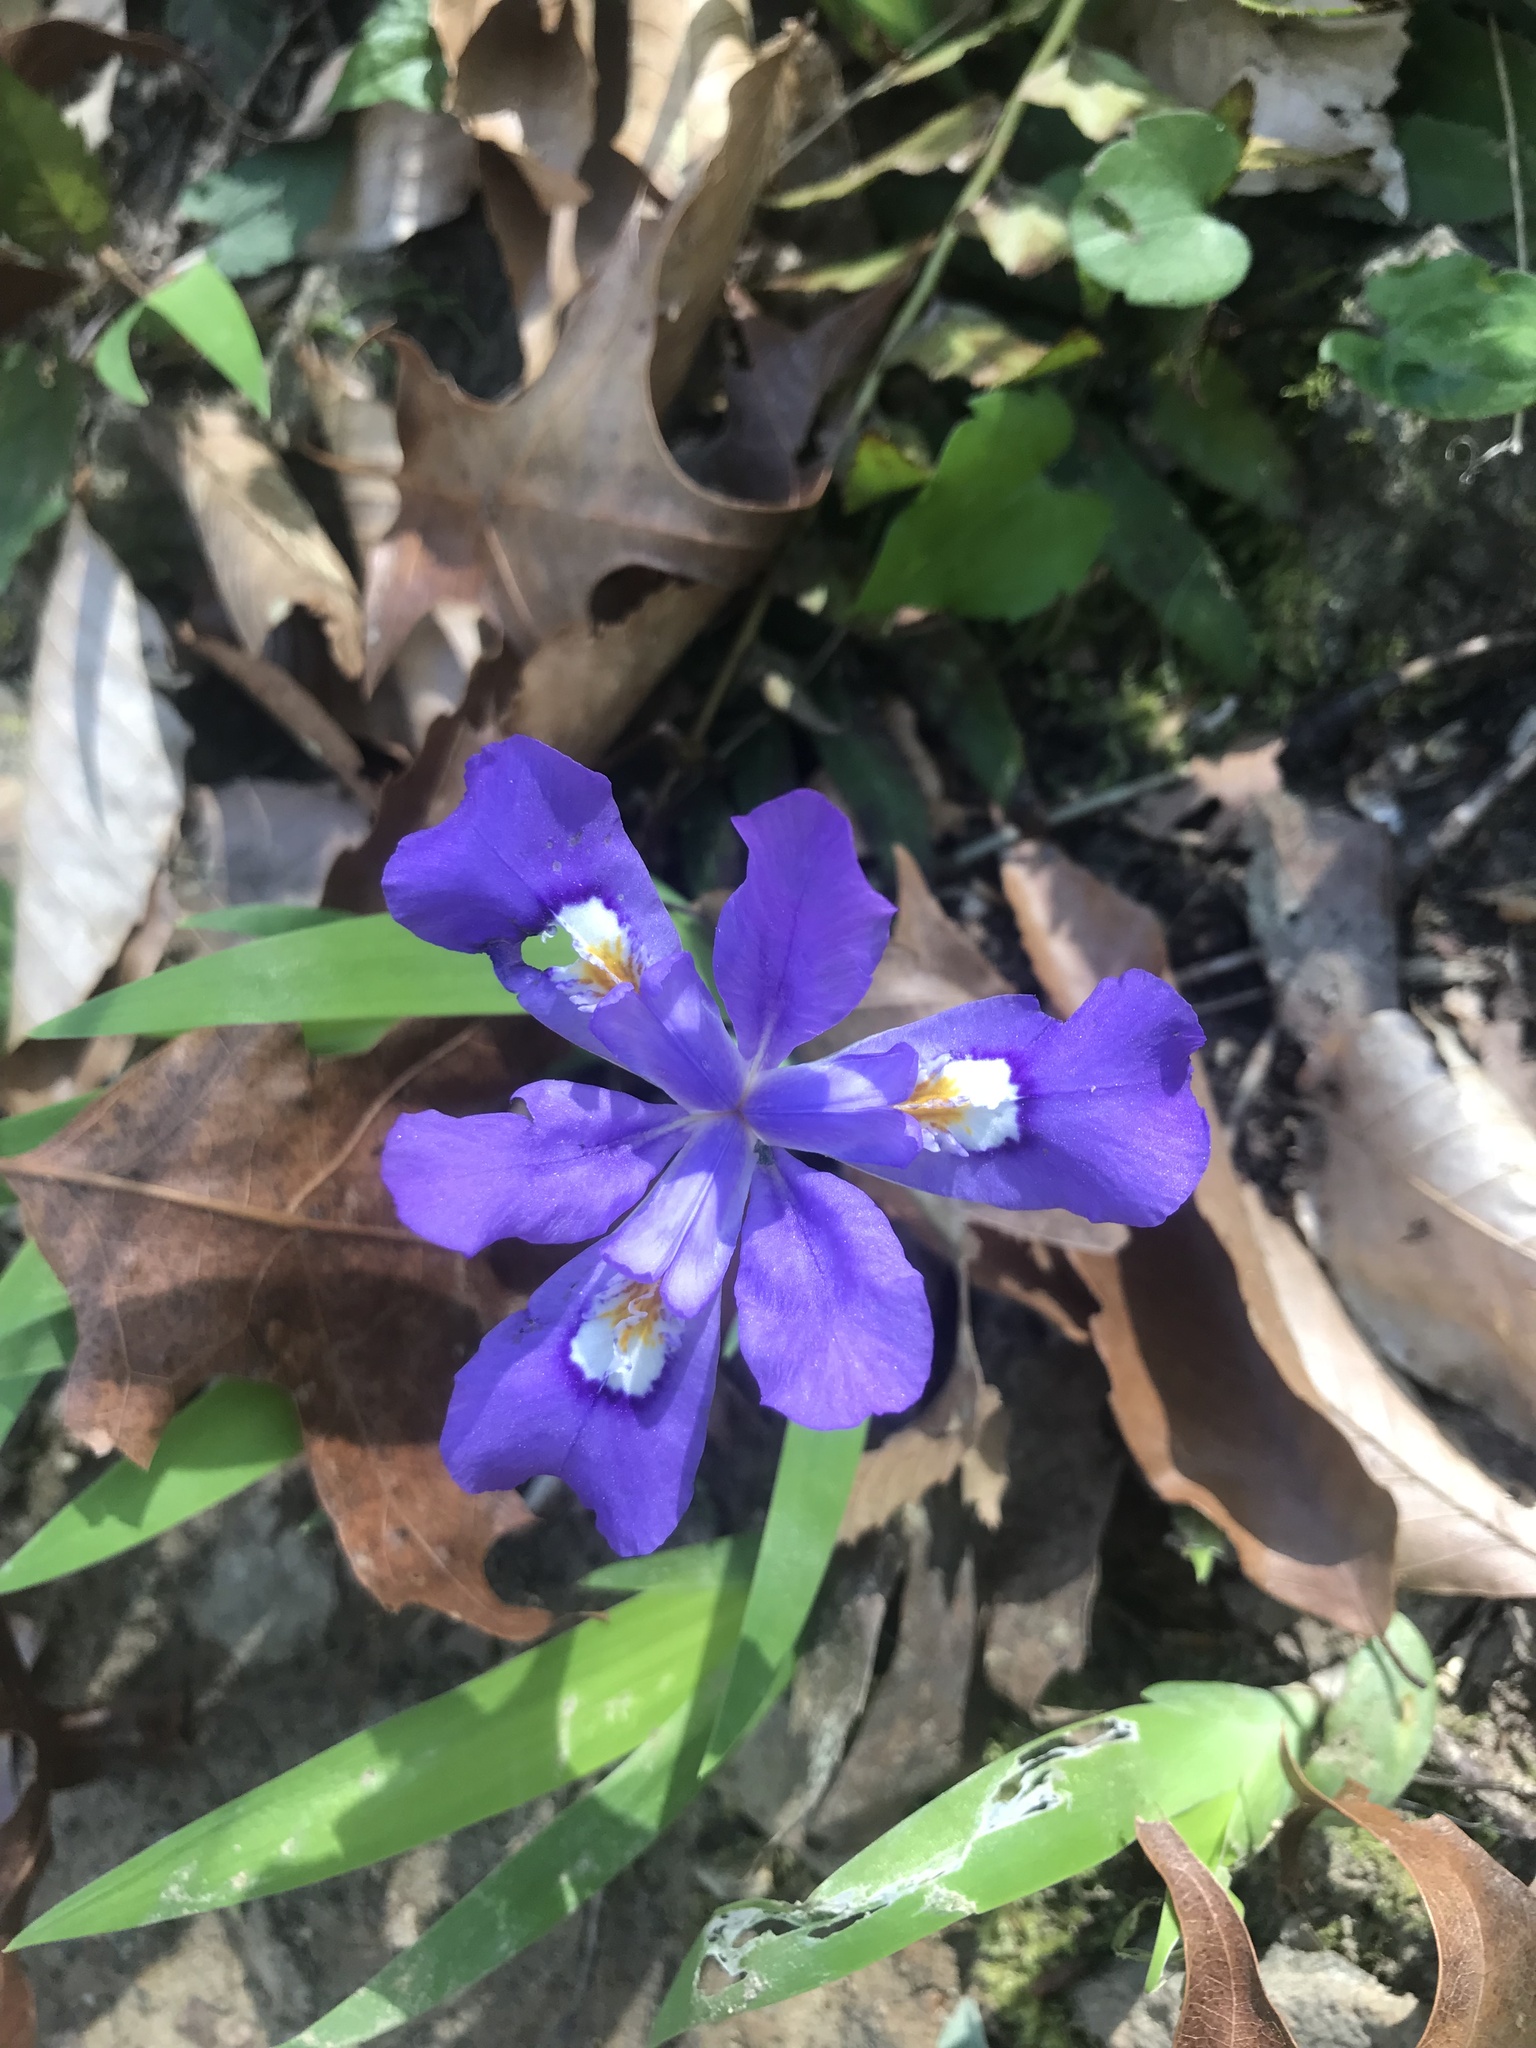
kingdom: Plantae
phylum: Tracheophyta
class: Liliopsida
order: Asparagales
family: Iridaceae
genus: Iris
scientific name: Iris cristata
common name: Crested iris
